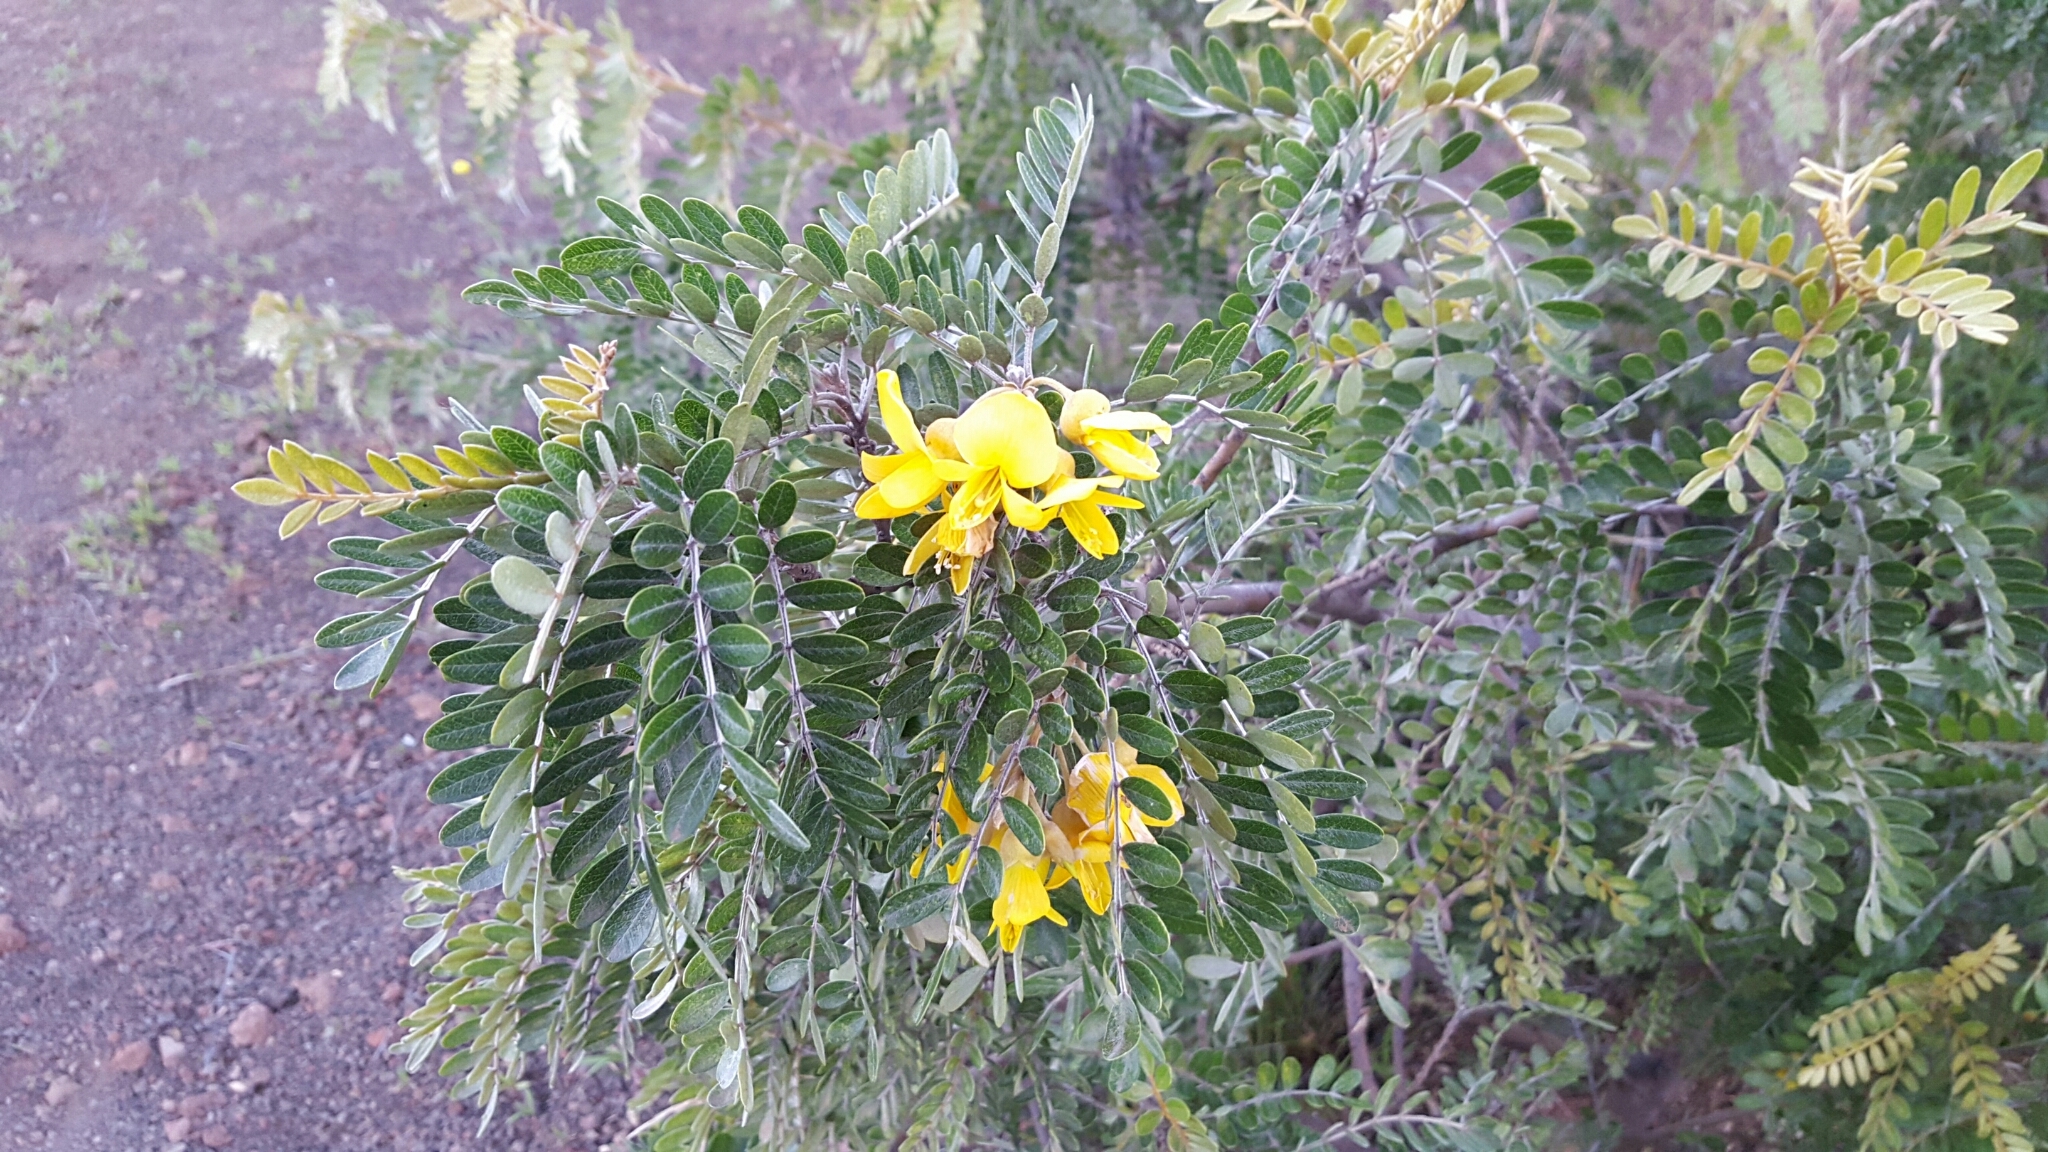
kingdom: Plantae
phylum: Tracheophyta
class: Magnoliopsida
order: Fabales
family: Fabaceae
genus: Sophora
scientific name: Sophora chrysophylla
